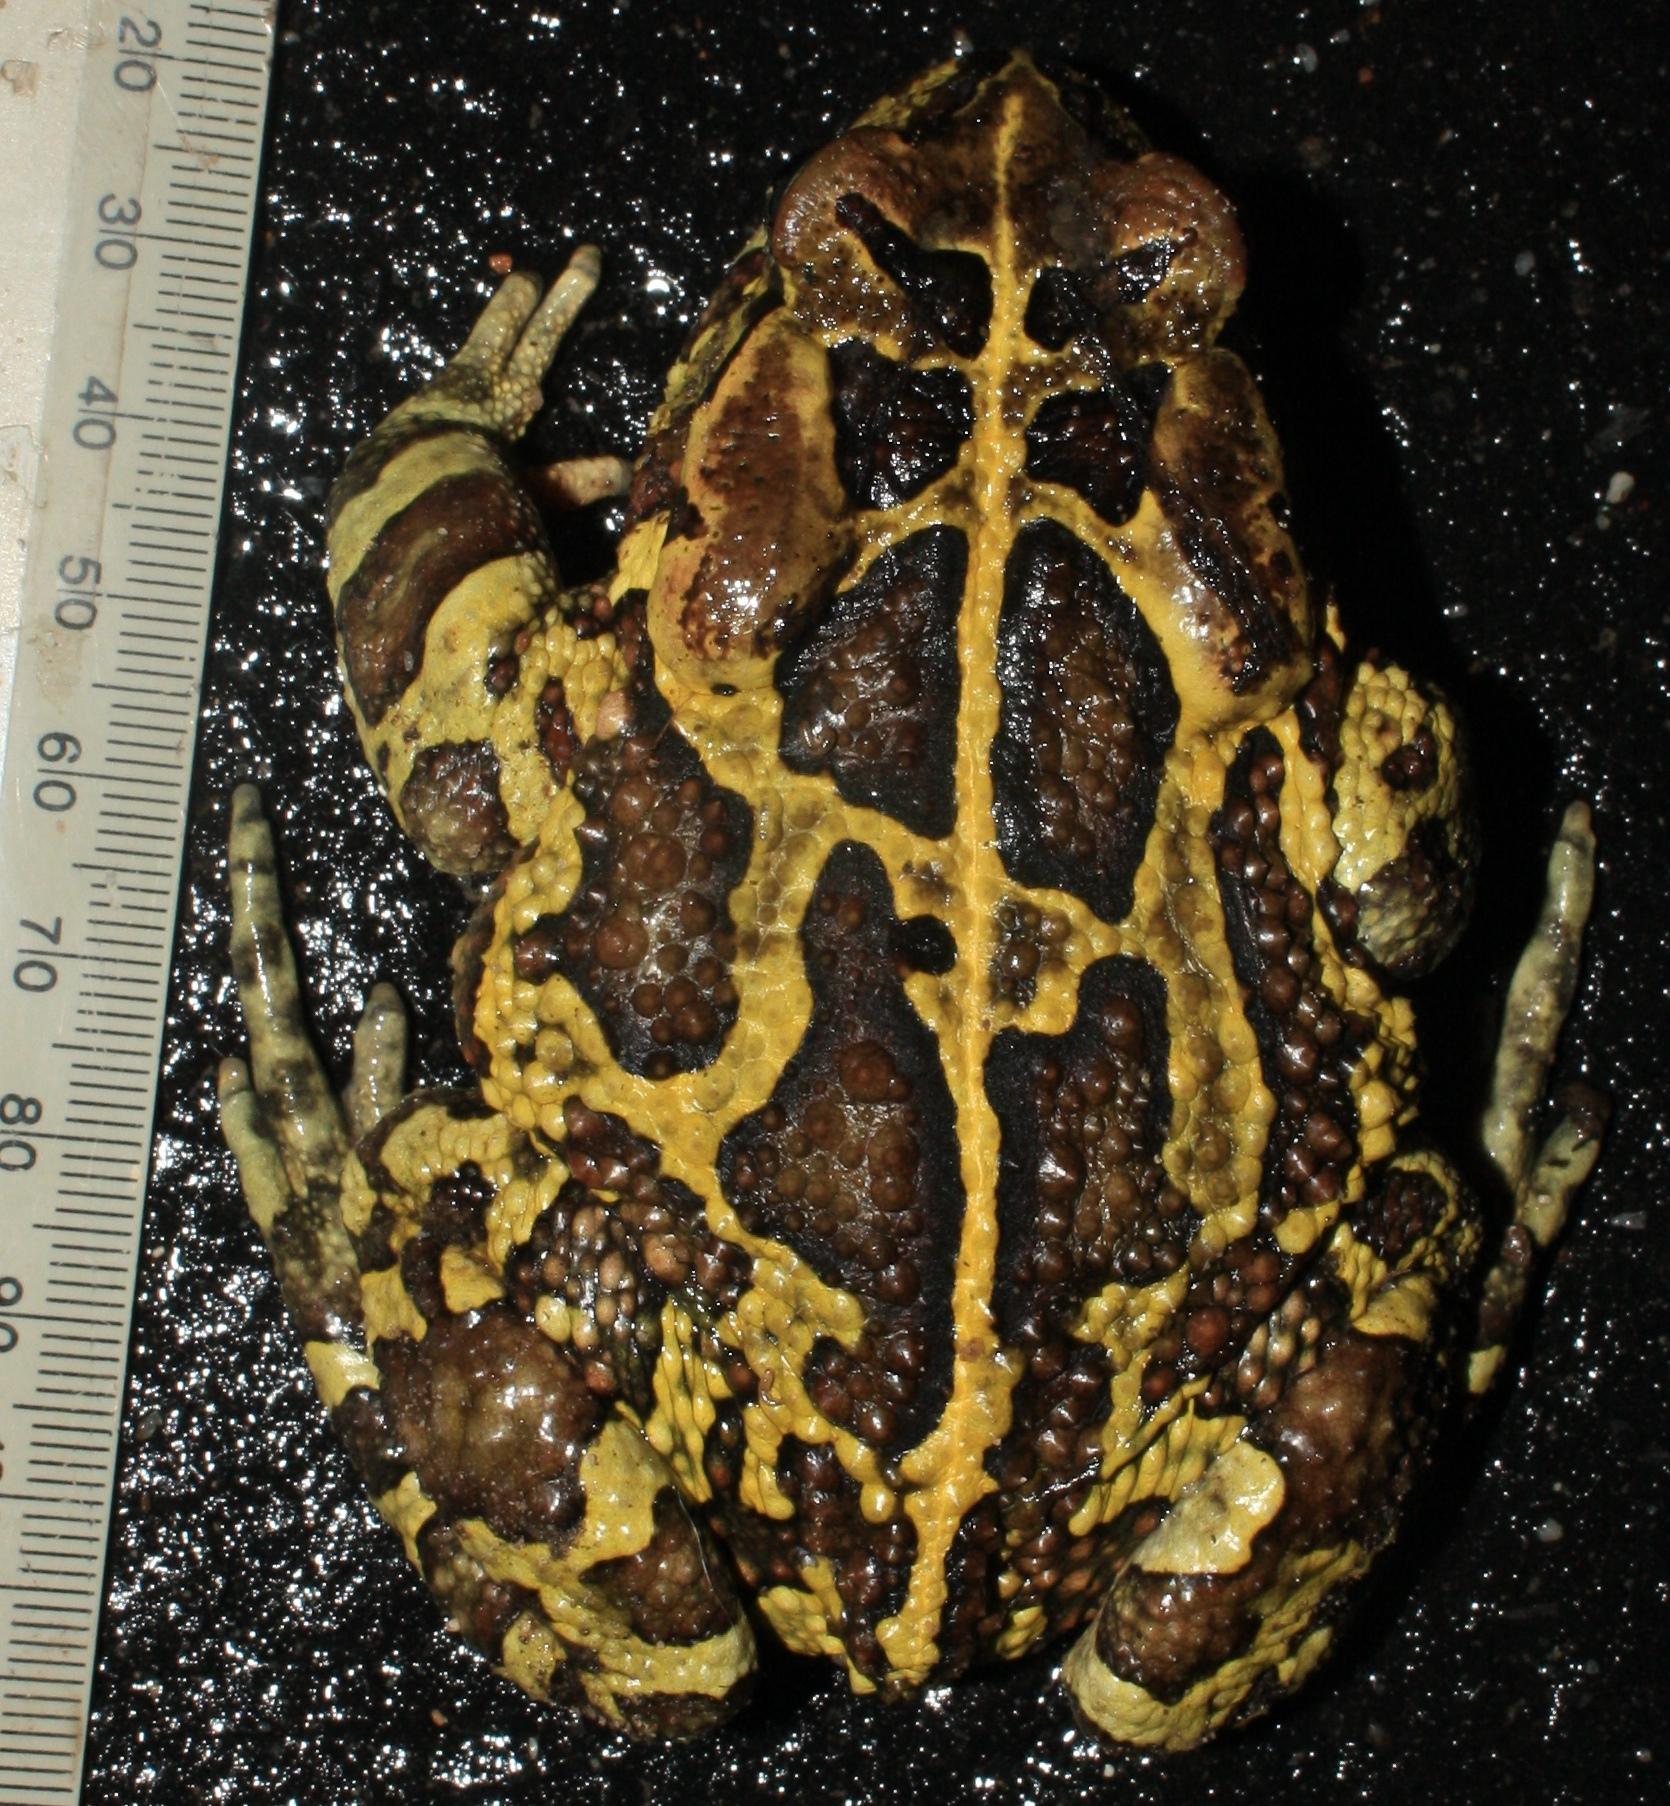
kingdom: Animalia
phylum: Chordata
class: Amphibia
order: Anura
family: Bufonidae
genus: Sclerophrys
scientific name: Sclerophrys pantherina
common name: Panther toad
